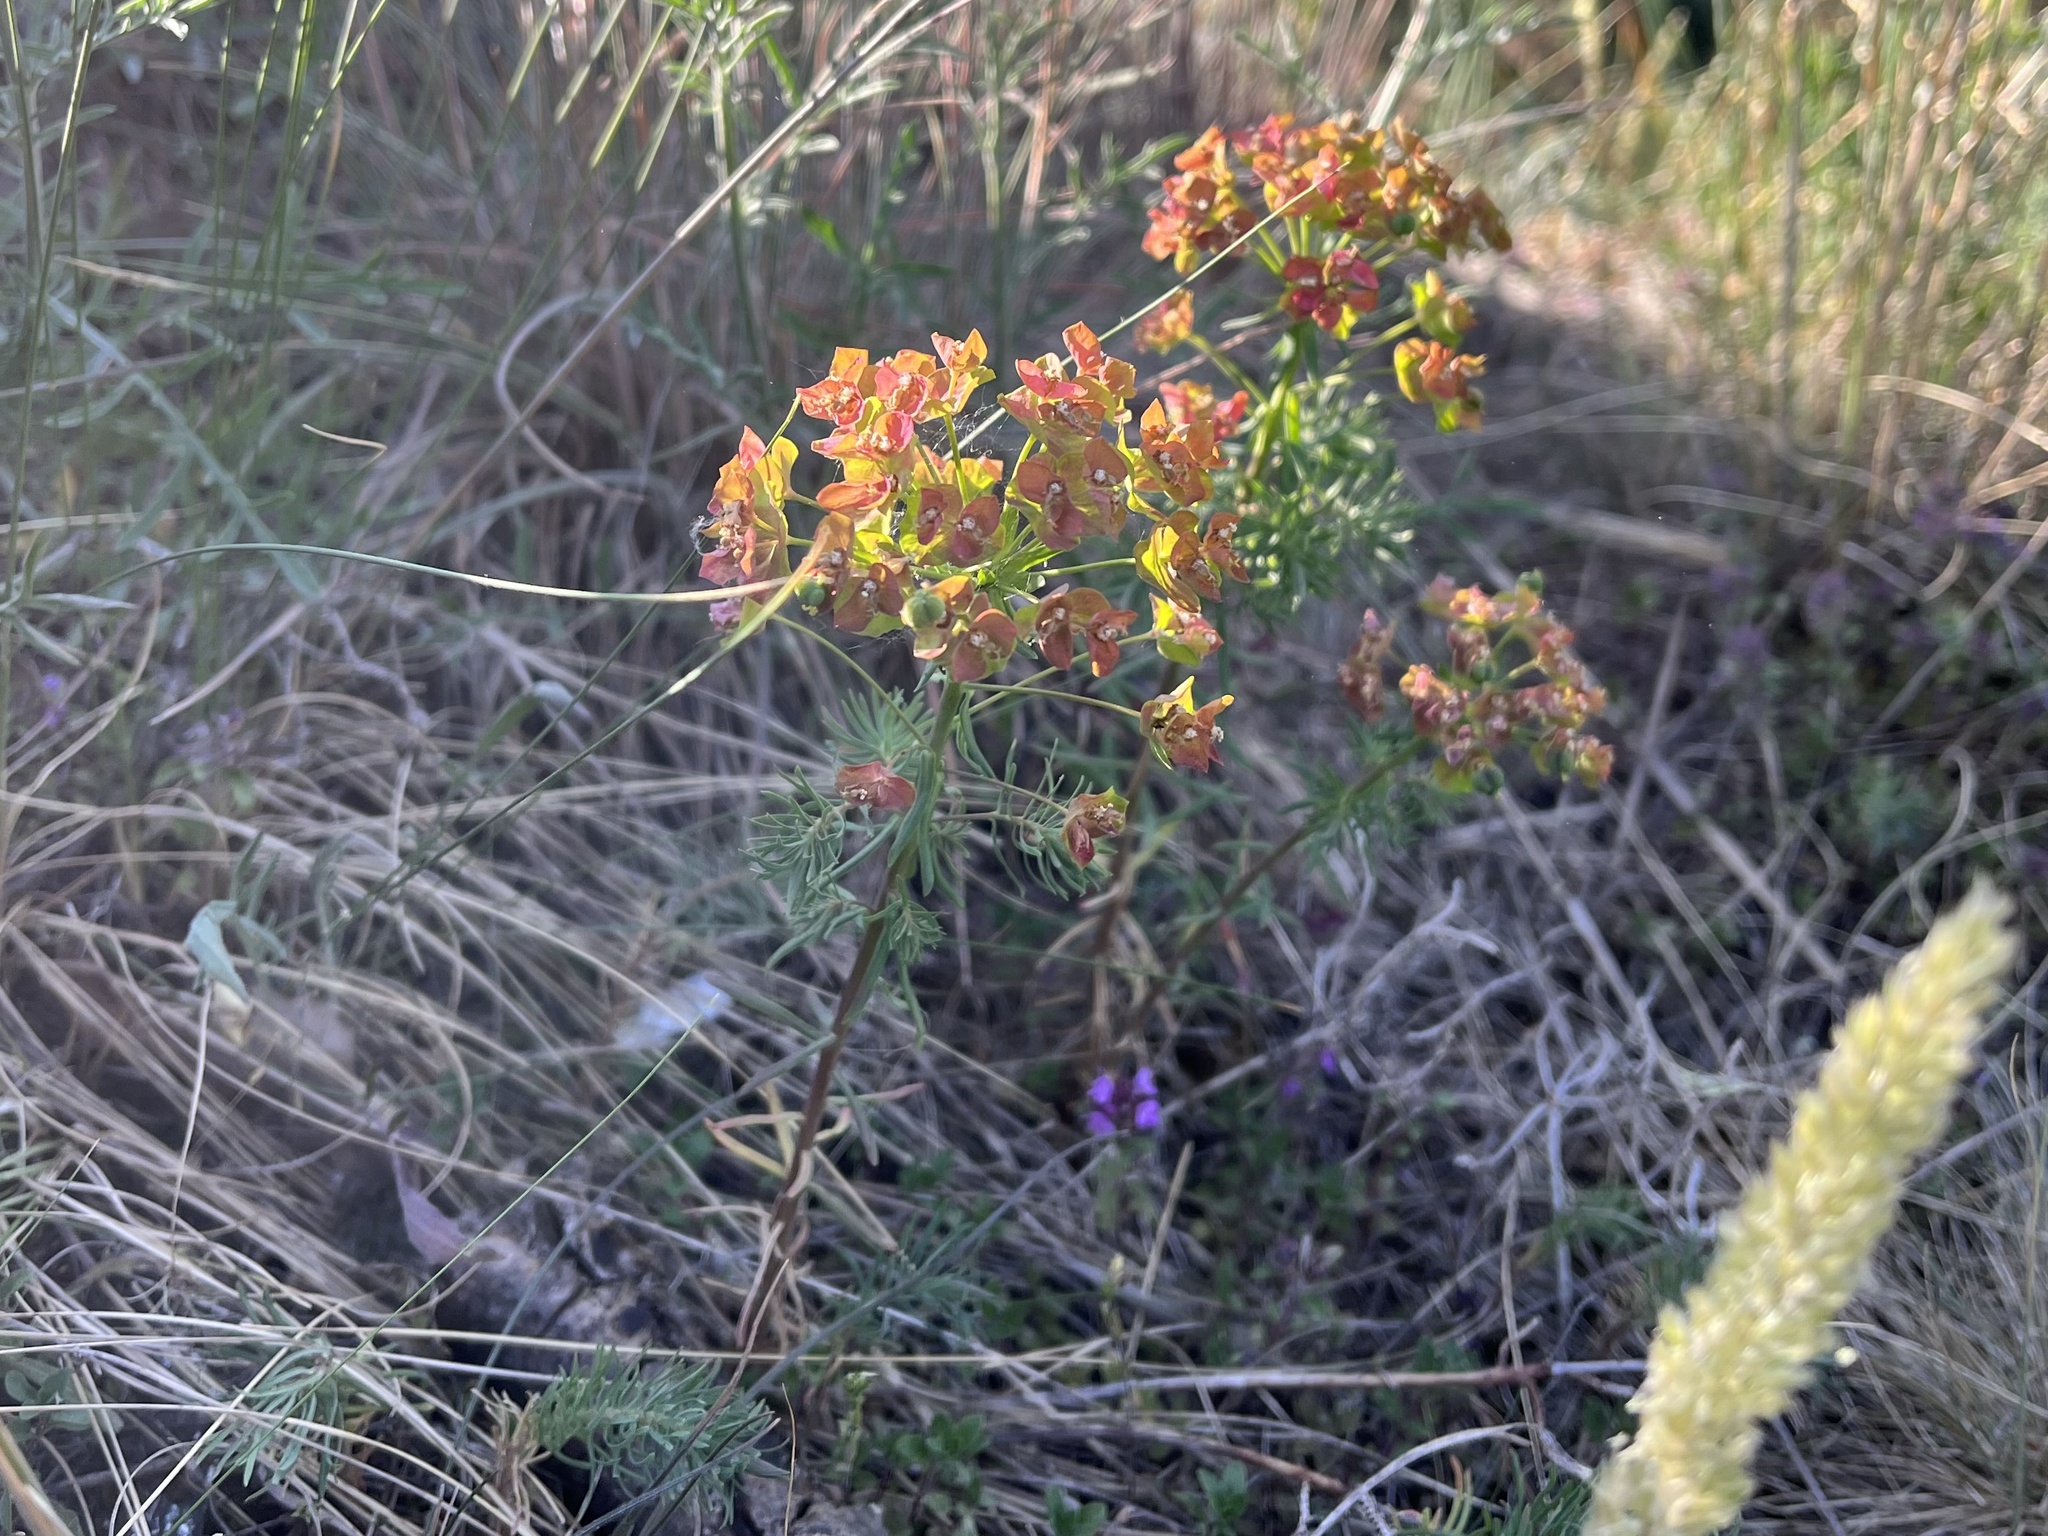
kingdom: Plantae
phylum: Tracheophyta
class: Magnoliopsida
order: Malpighiales
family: Euphorbiaceae
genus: Euphorbia
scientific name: Euphorbia cyparissias
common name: Cypress spurge
